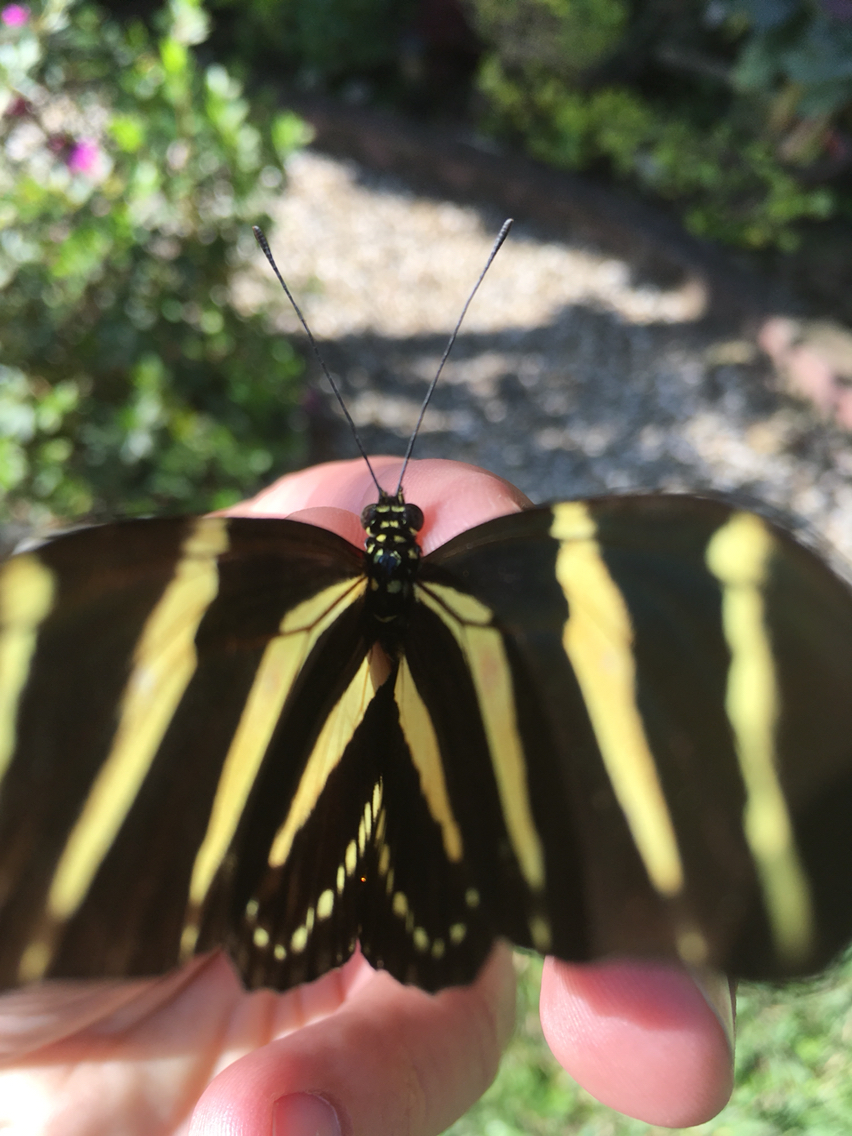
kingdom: Animalia
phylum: Arthropoda
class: Insecta
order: Lepidoptera
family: Nymphalidae
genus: Heliconius
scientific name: Heliconius charithonia
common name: Zebra long wing
